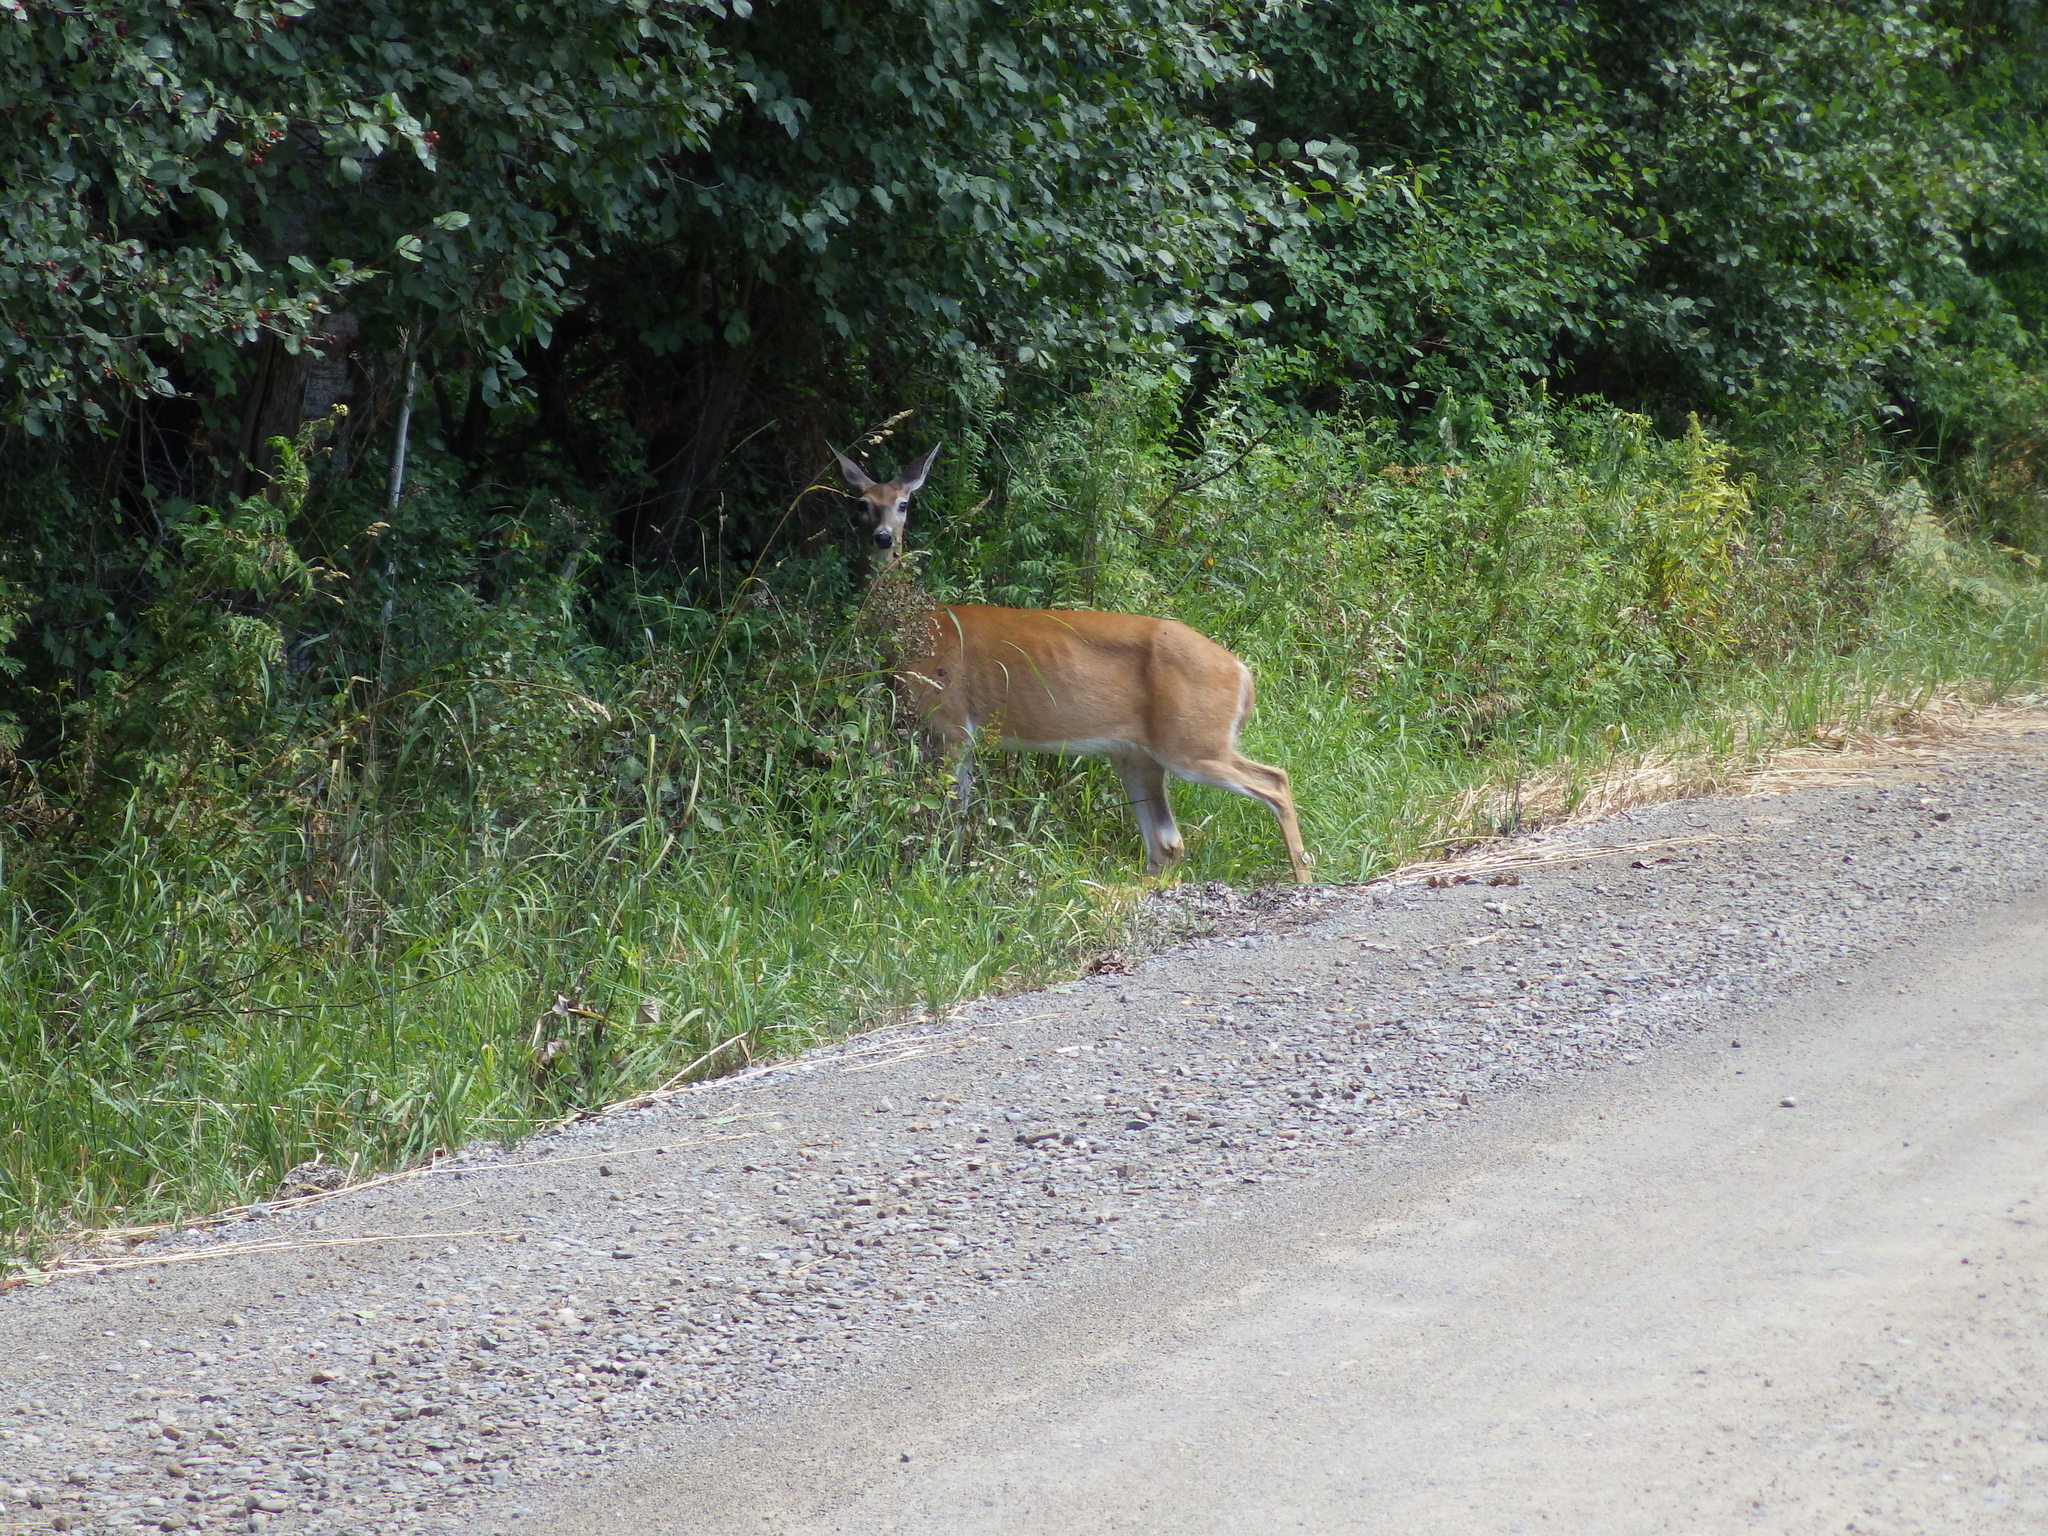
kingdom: Animalia
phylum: Chordata
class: Mammalia
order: Artiodactyla
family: Cervidae
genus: Odocoileus
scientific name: Odocoileus virginianus
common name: White-tailed deer
